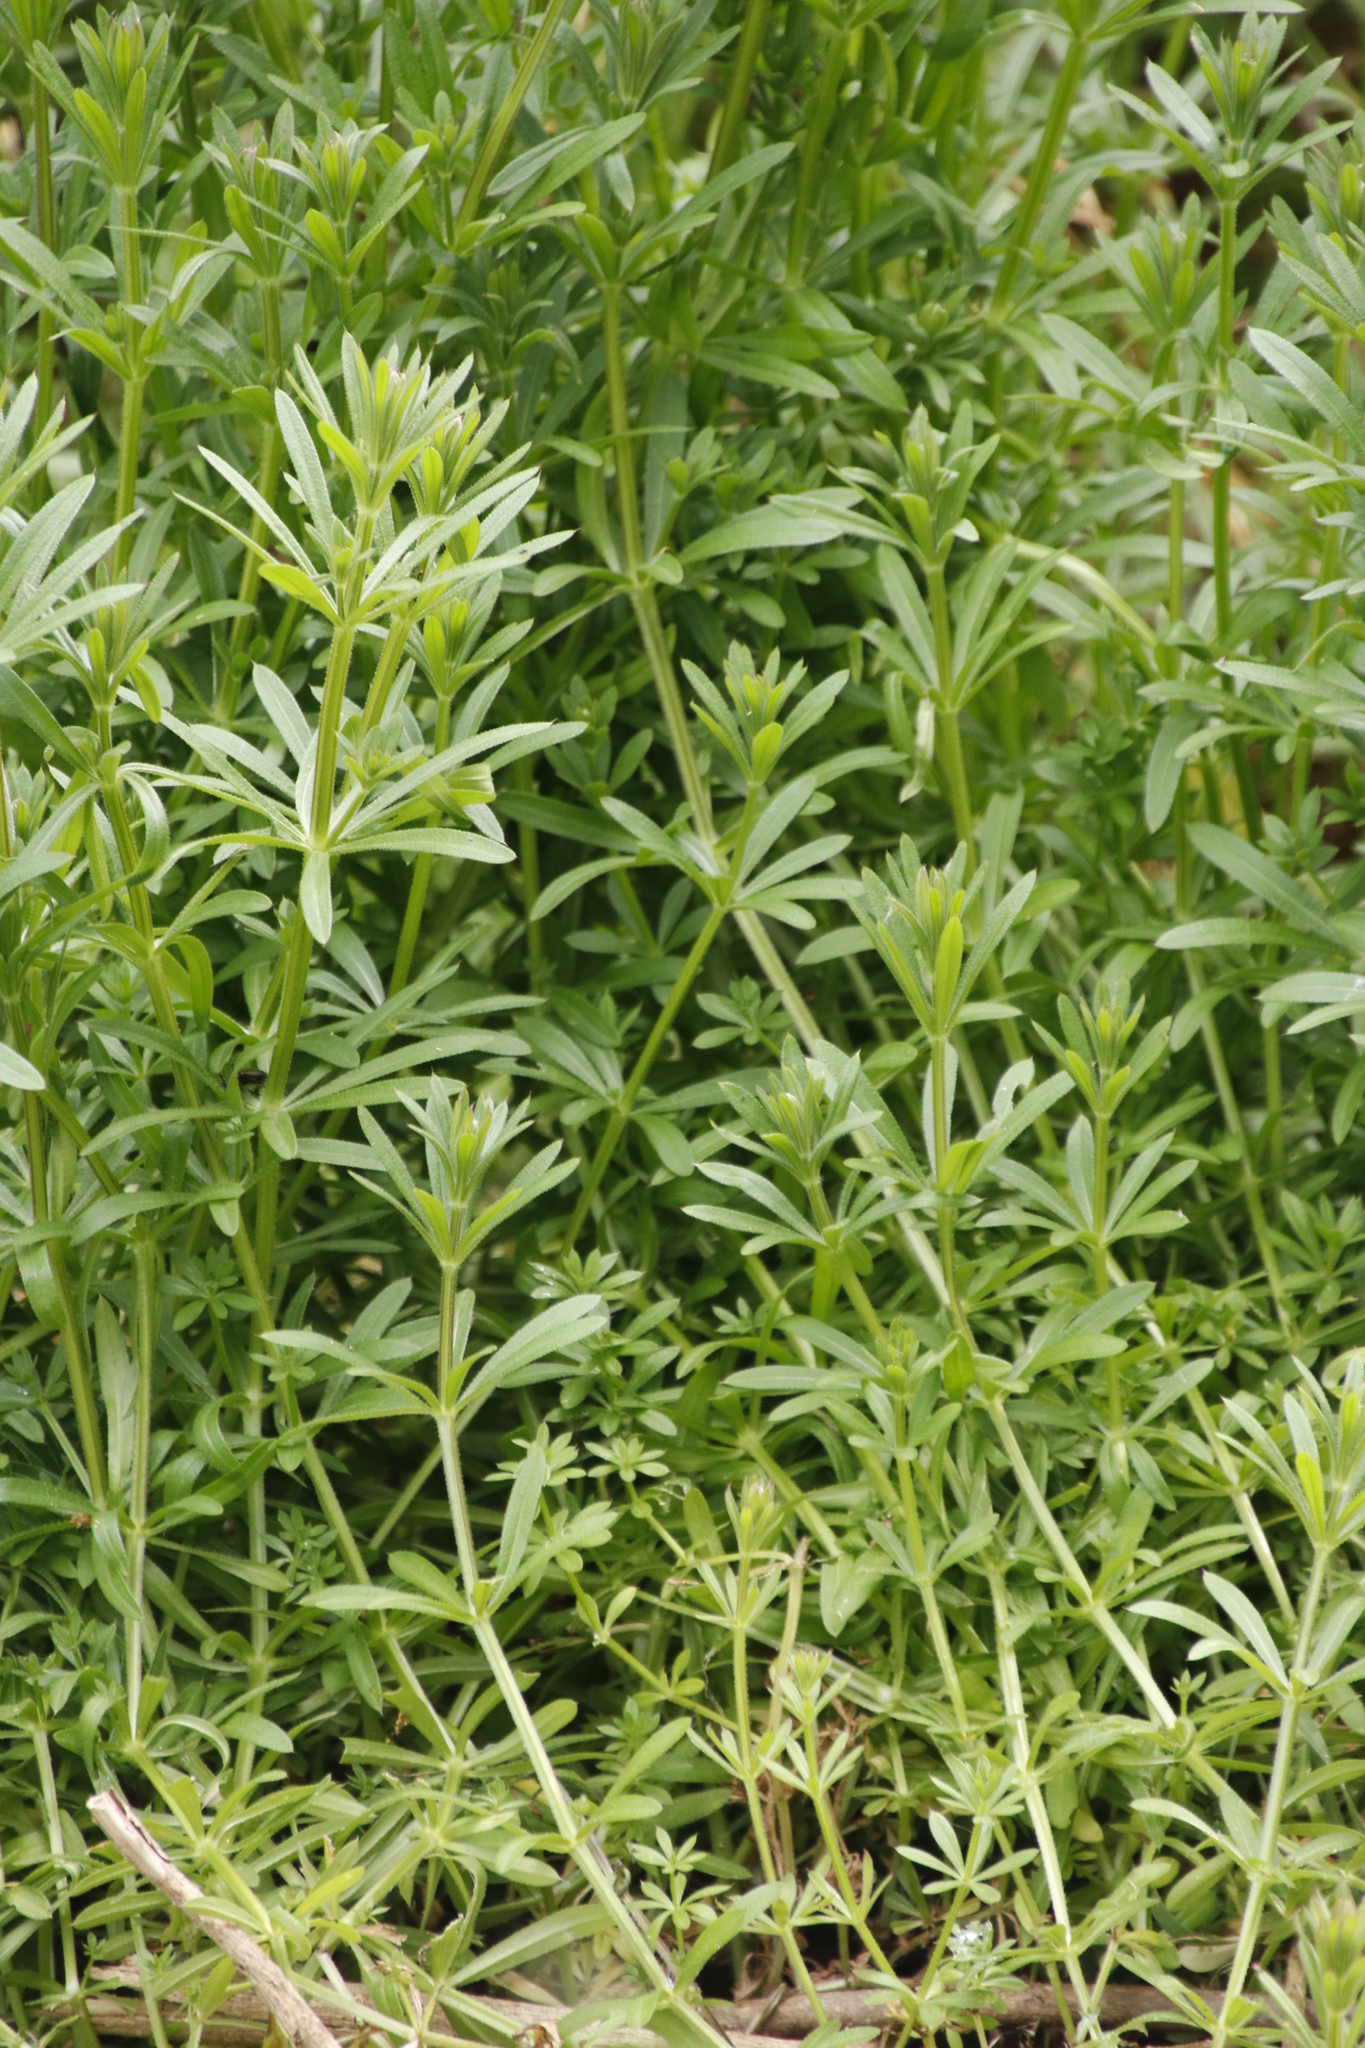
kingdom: Plantae
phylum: Tracheophyta
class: Magnoliopsida
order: Gentianales
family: Rubiaceae
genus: Galium
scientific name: Galium aparine
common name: Cleavers
